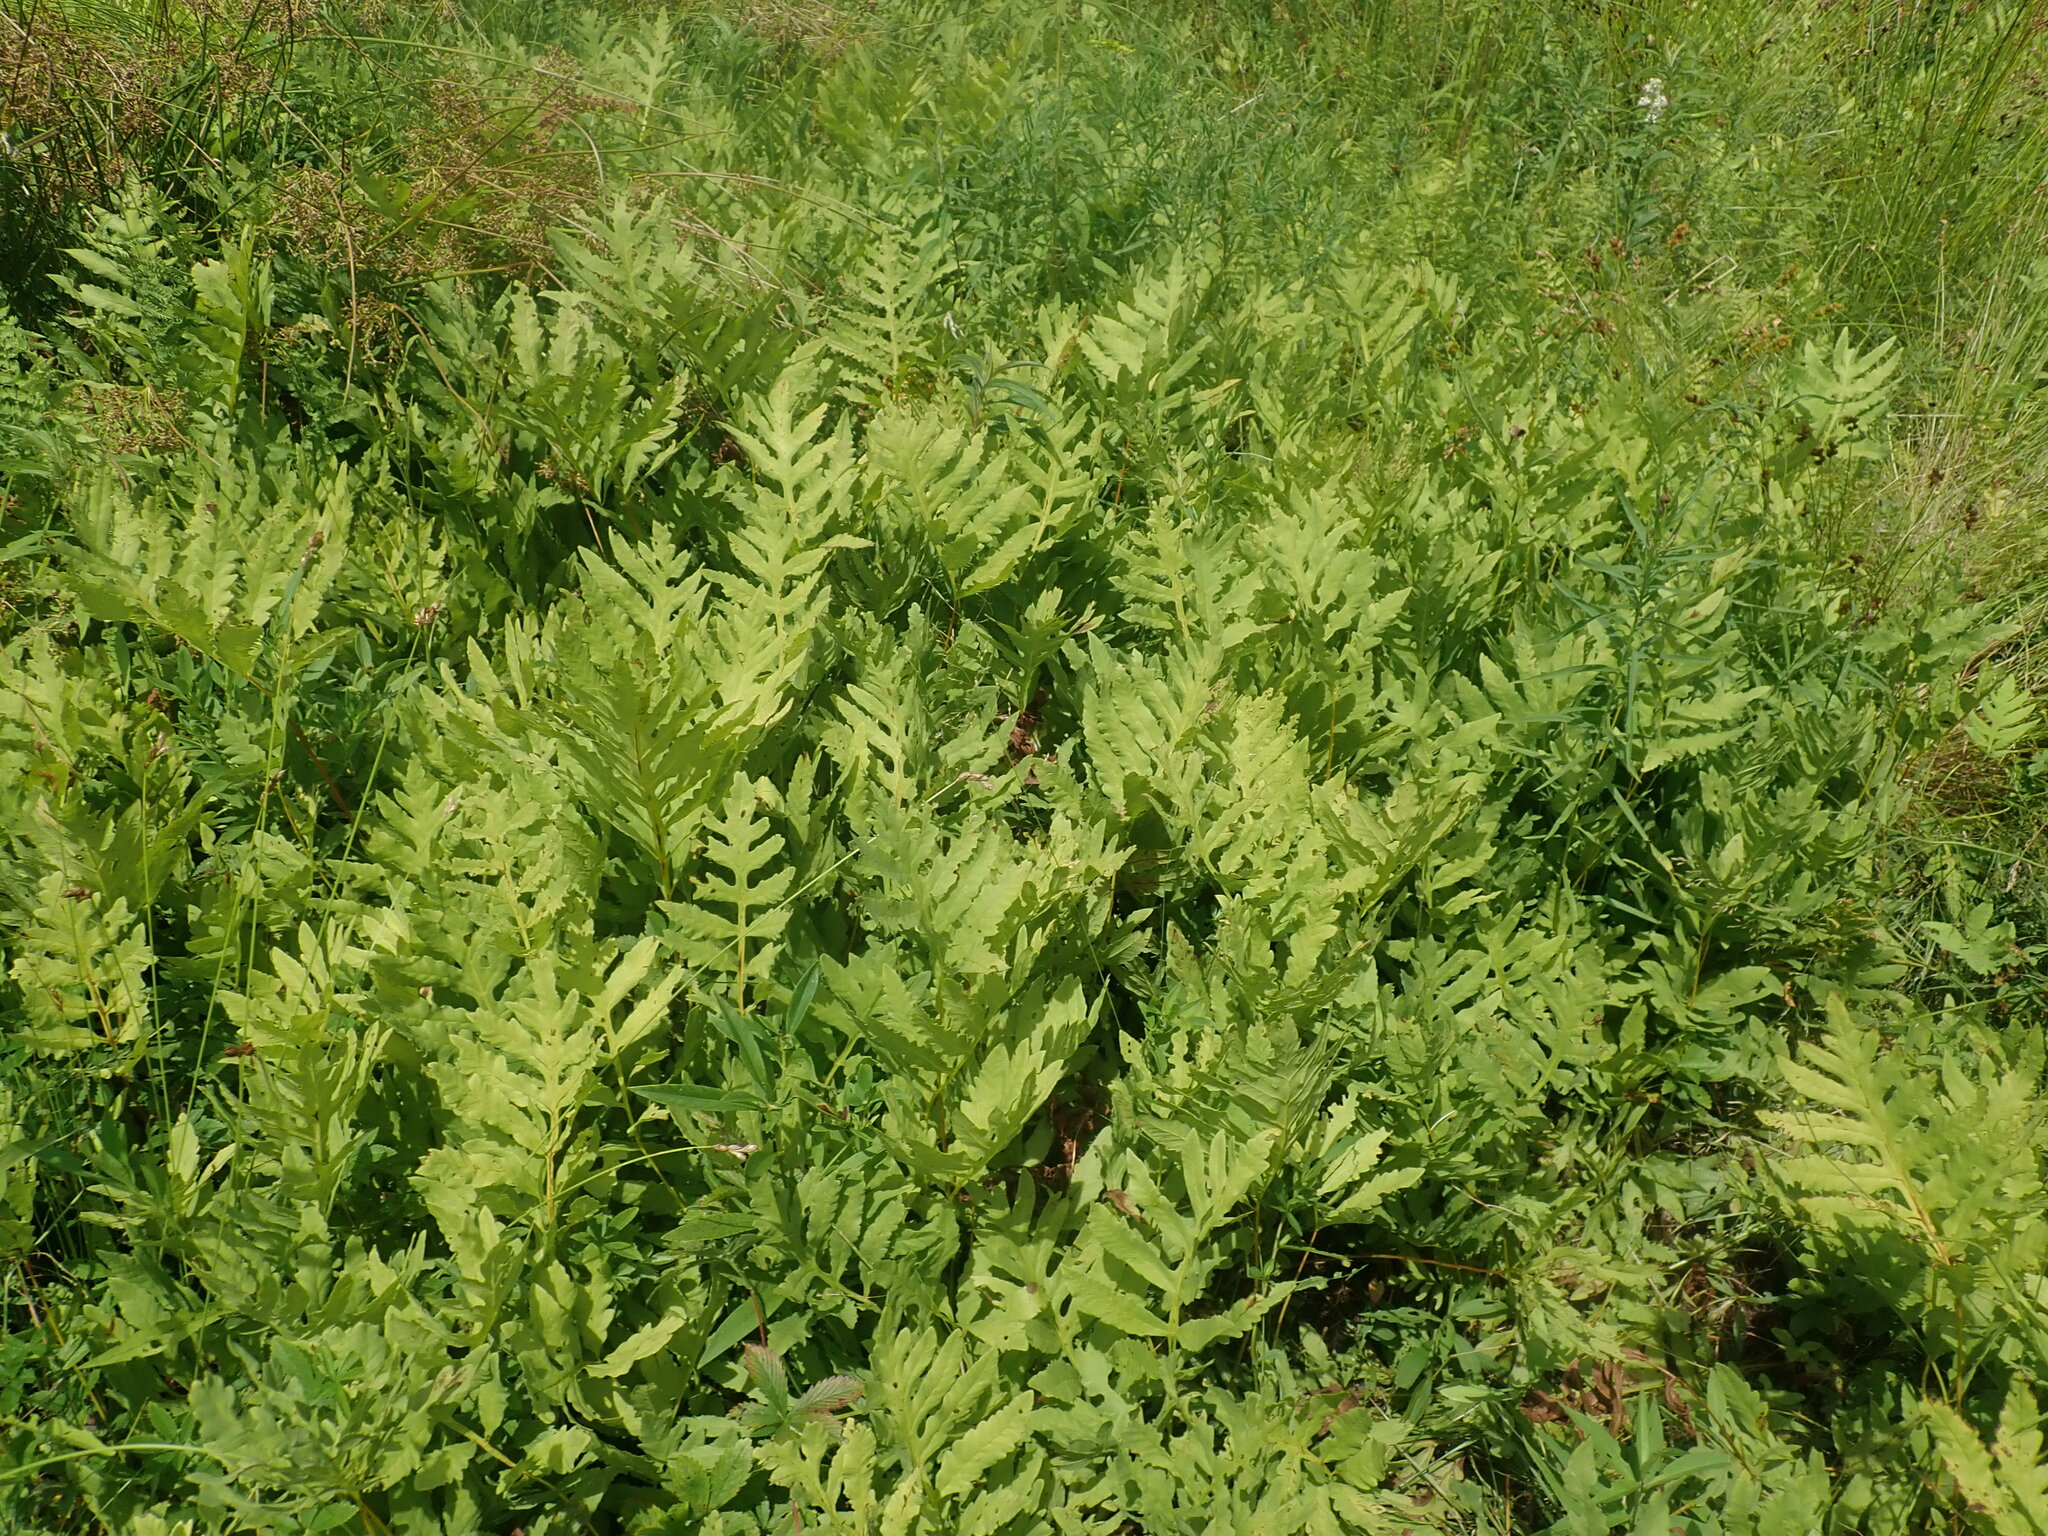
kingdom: Plantae
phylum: Tracheophyta
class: Polypodiopsida
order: Polypodiales
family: Onocleaceae
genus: Onoclea
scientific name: Onoclea sensibilis
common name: Sensitive fern
